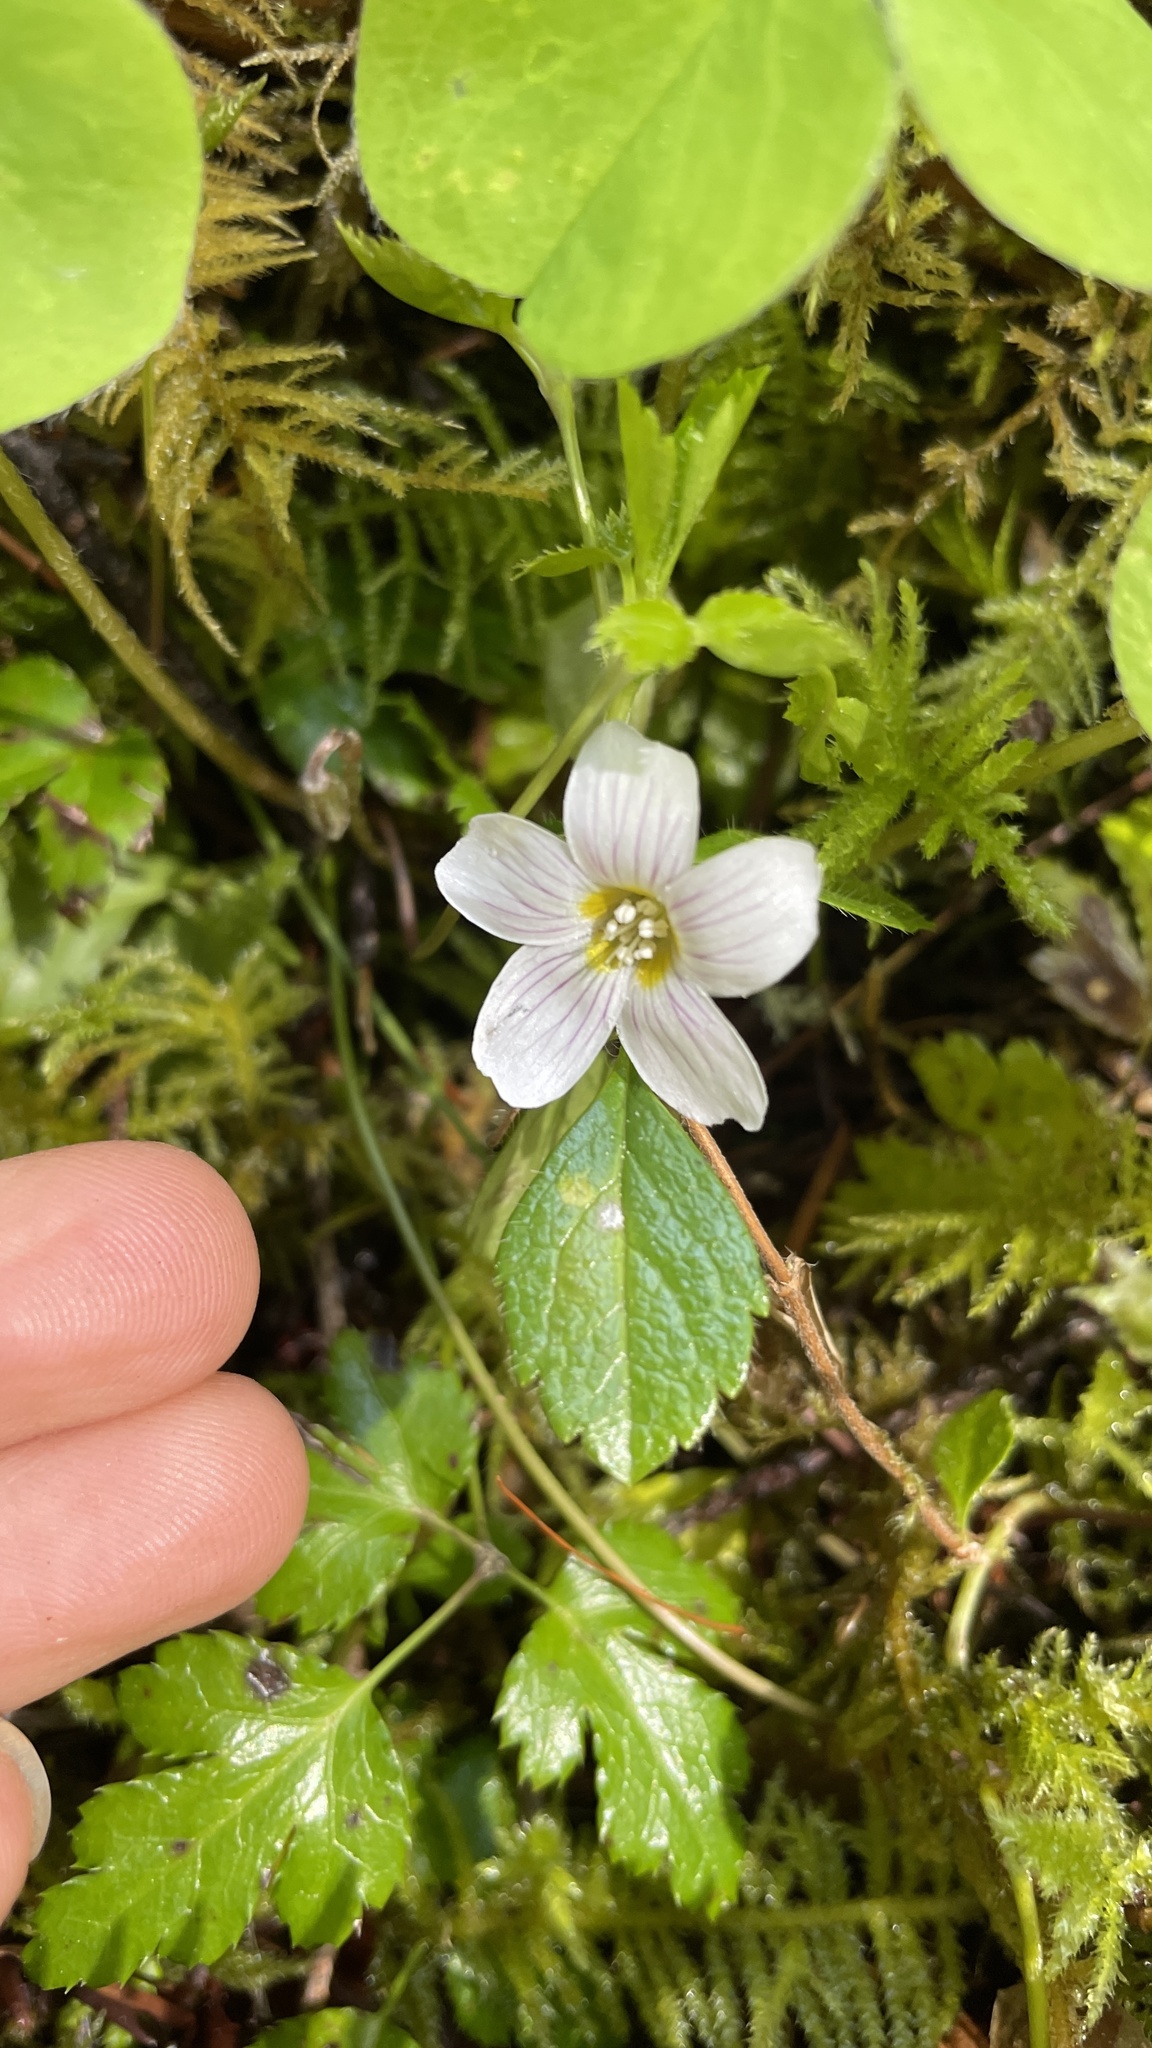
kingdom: Plantae
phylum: Tracheophyta
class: Magnoliopsida
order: Oxalidales
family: Oxalidaceae
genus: Oxalis
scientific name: Oxalis oregana
